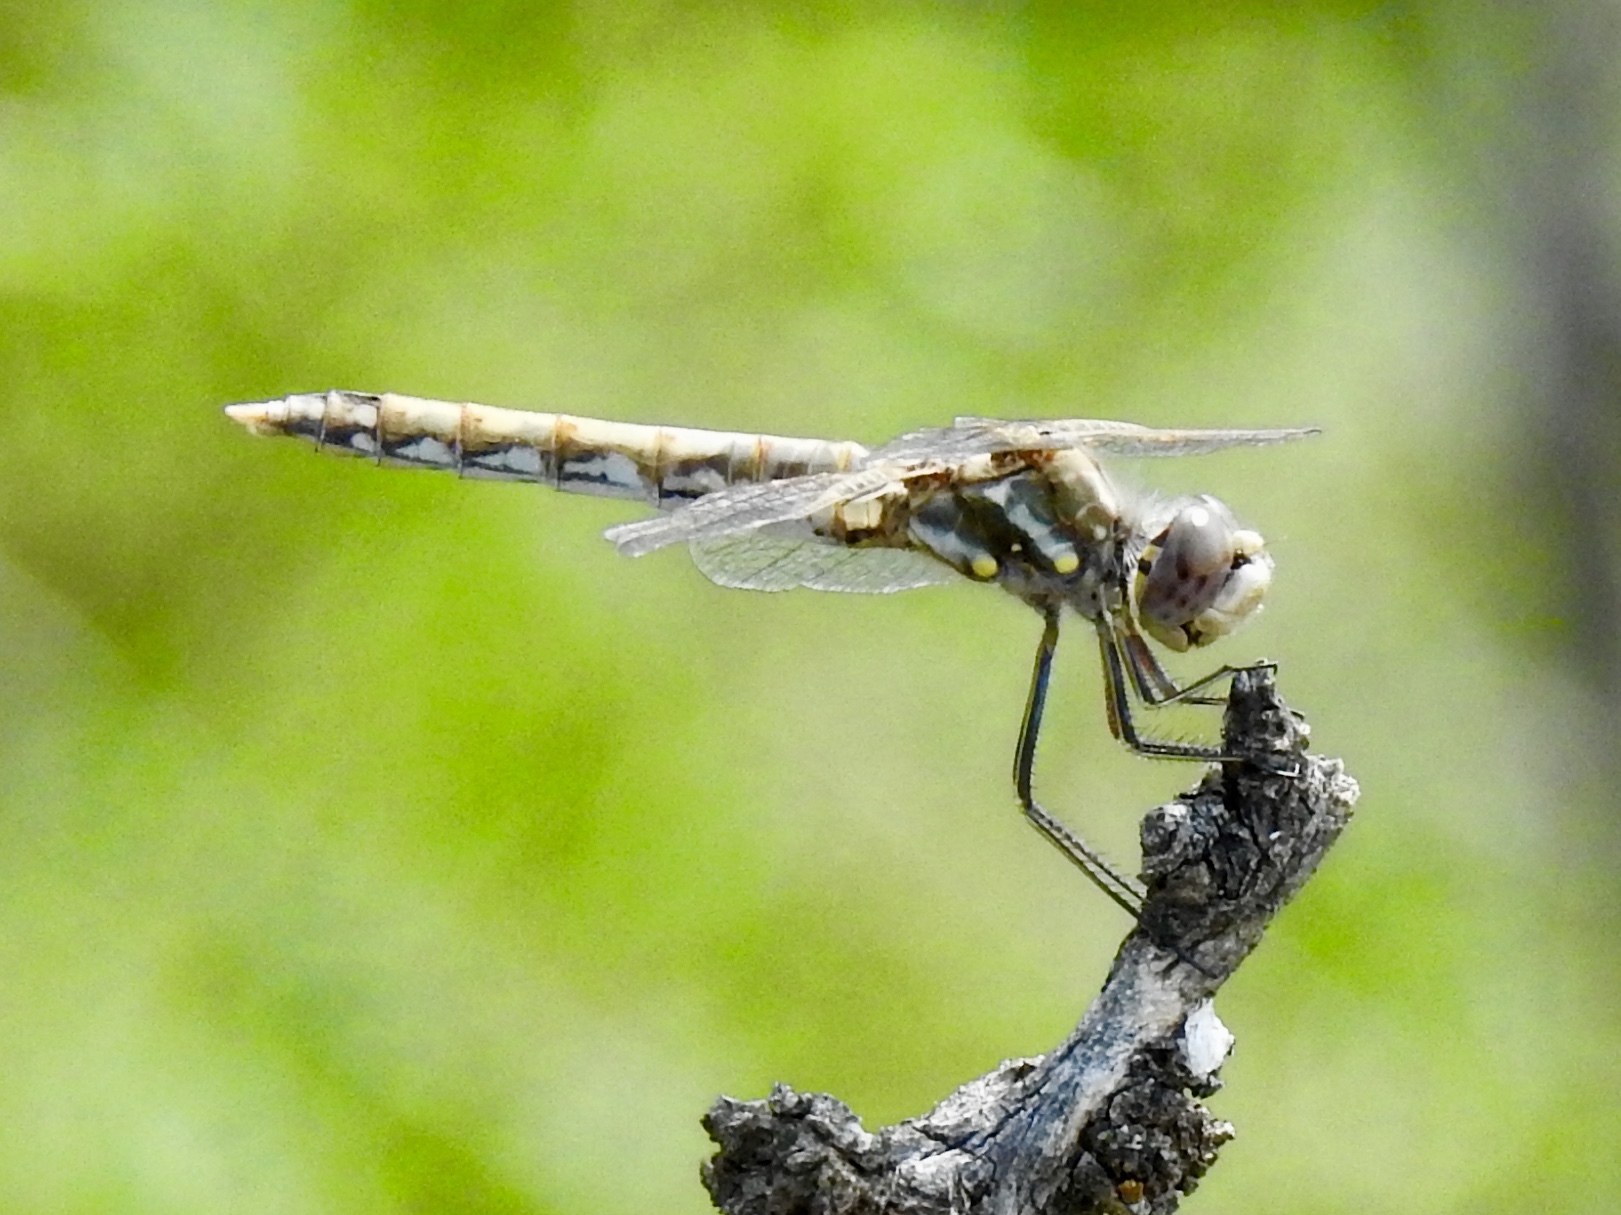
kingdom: Animalia
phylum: Arthropoda
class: Insecta
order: Odonata
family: Libellulidae
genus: Sympetrum
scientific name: Sympetrum corruptum
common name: Variegated meadowhawk
